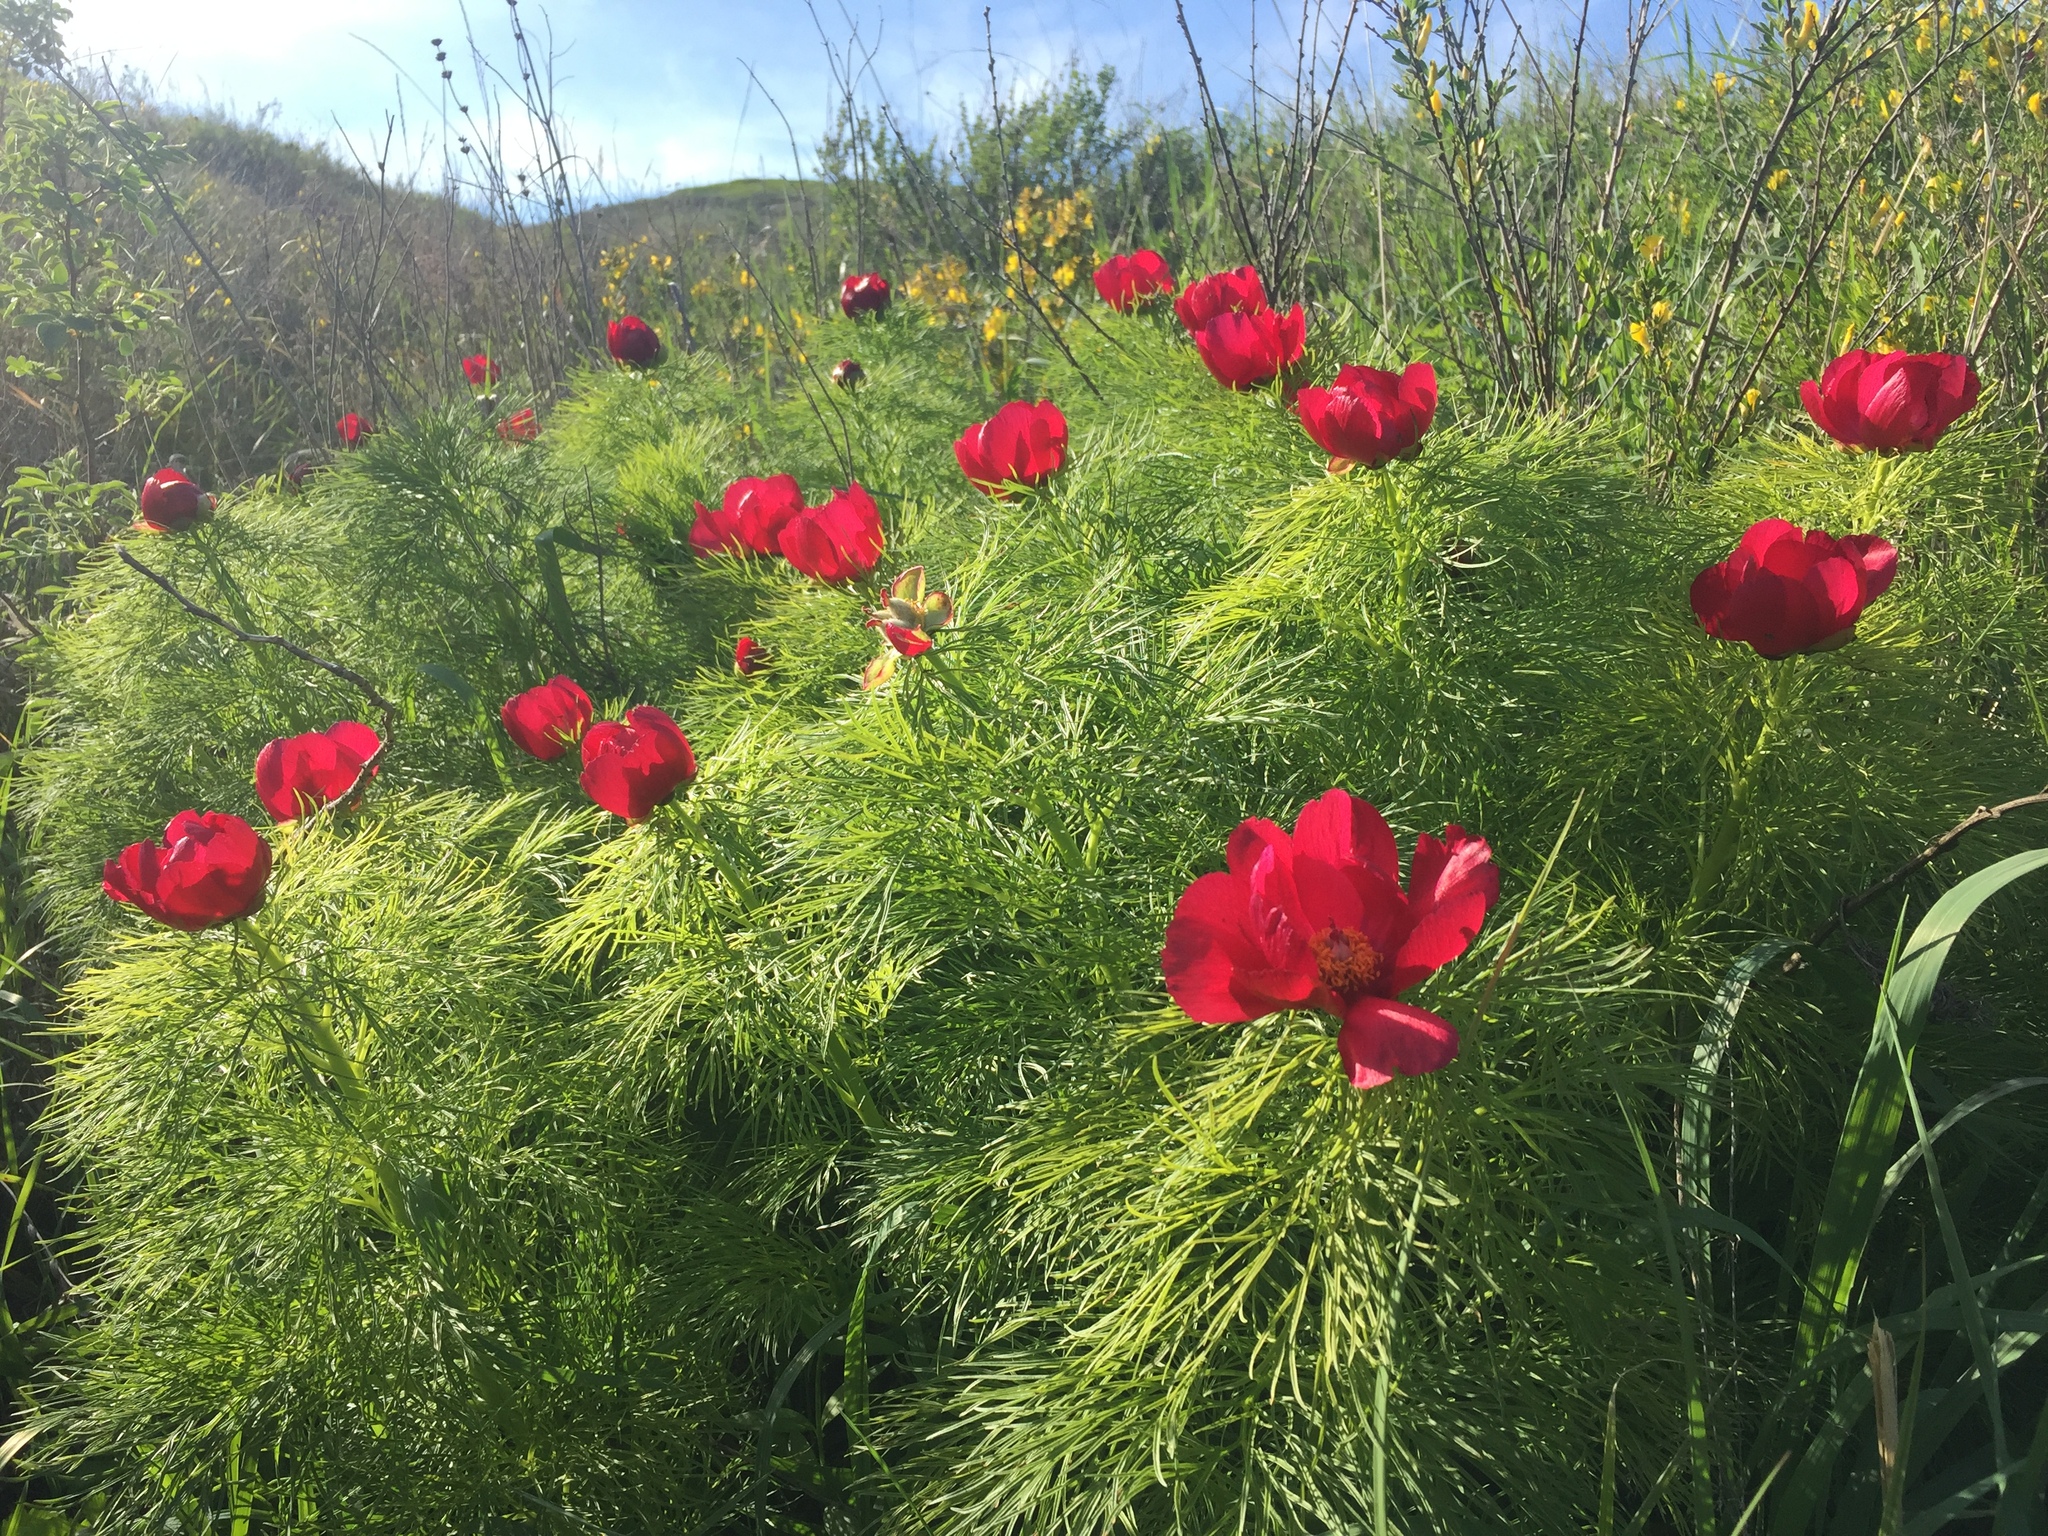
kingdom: Plantae
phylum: Tracheophyta
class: Magnoliopsida
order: Saxifragales
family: Paeoniaceae
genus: Paeonia
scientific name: Paeonia tenuifolia
